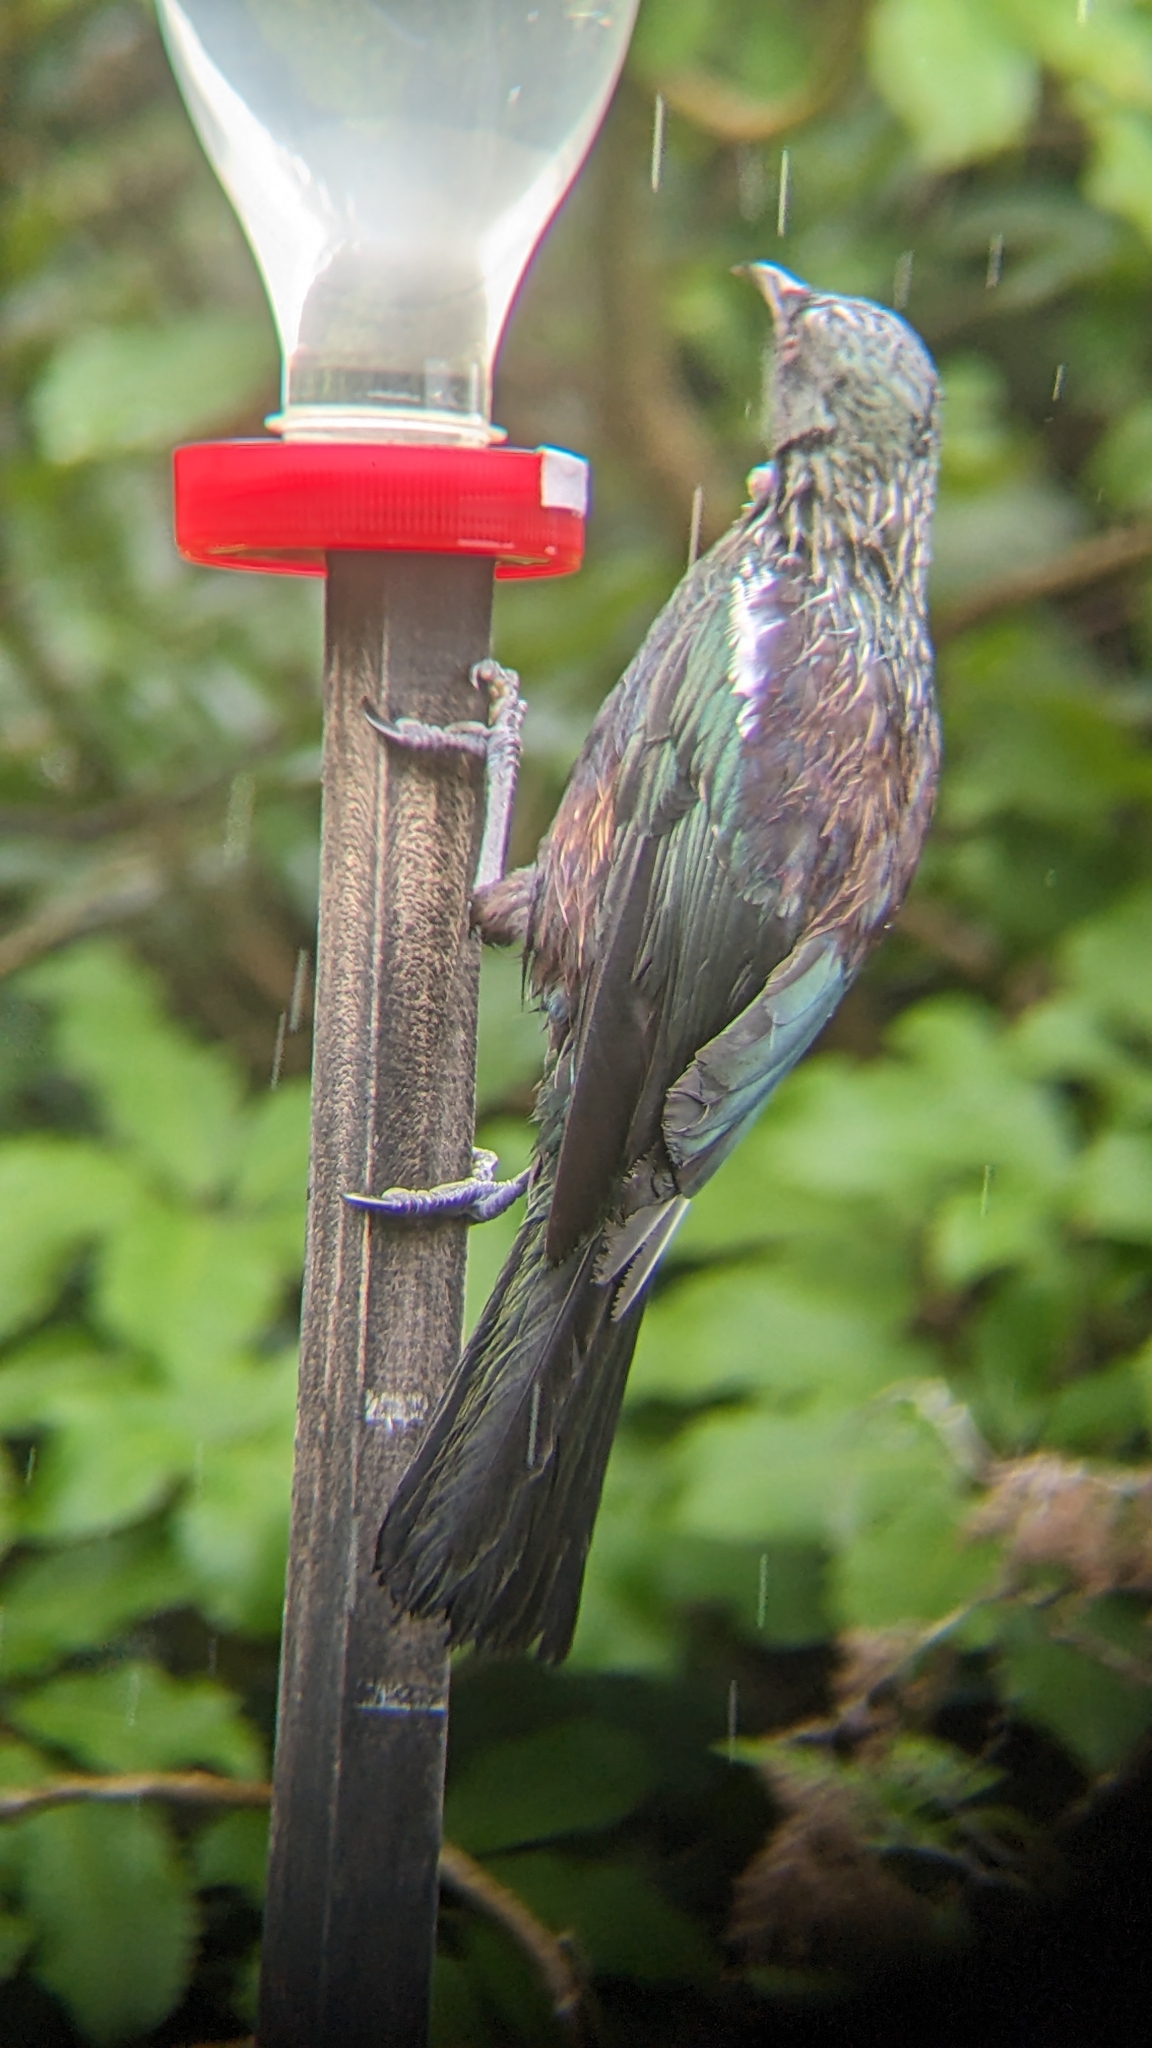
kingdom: Animalia
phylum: Chordata
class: Aves
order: Passeriformes
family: Meliphagidae
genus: Prosthemadera
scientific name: Prosthemadera novaeseelandiae
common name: Tui
